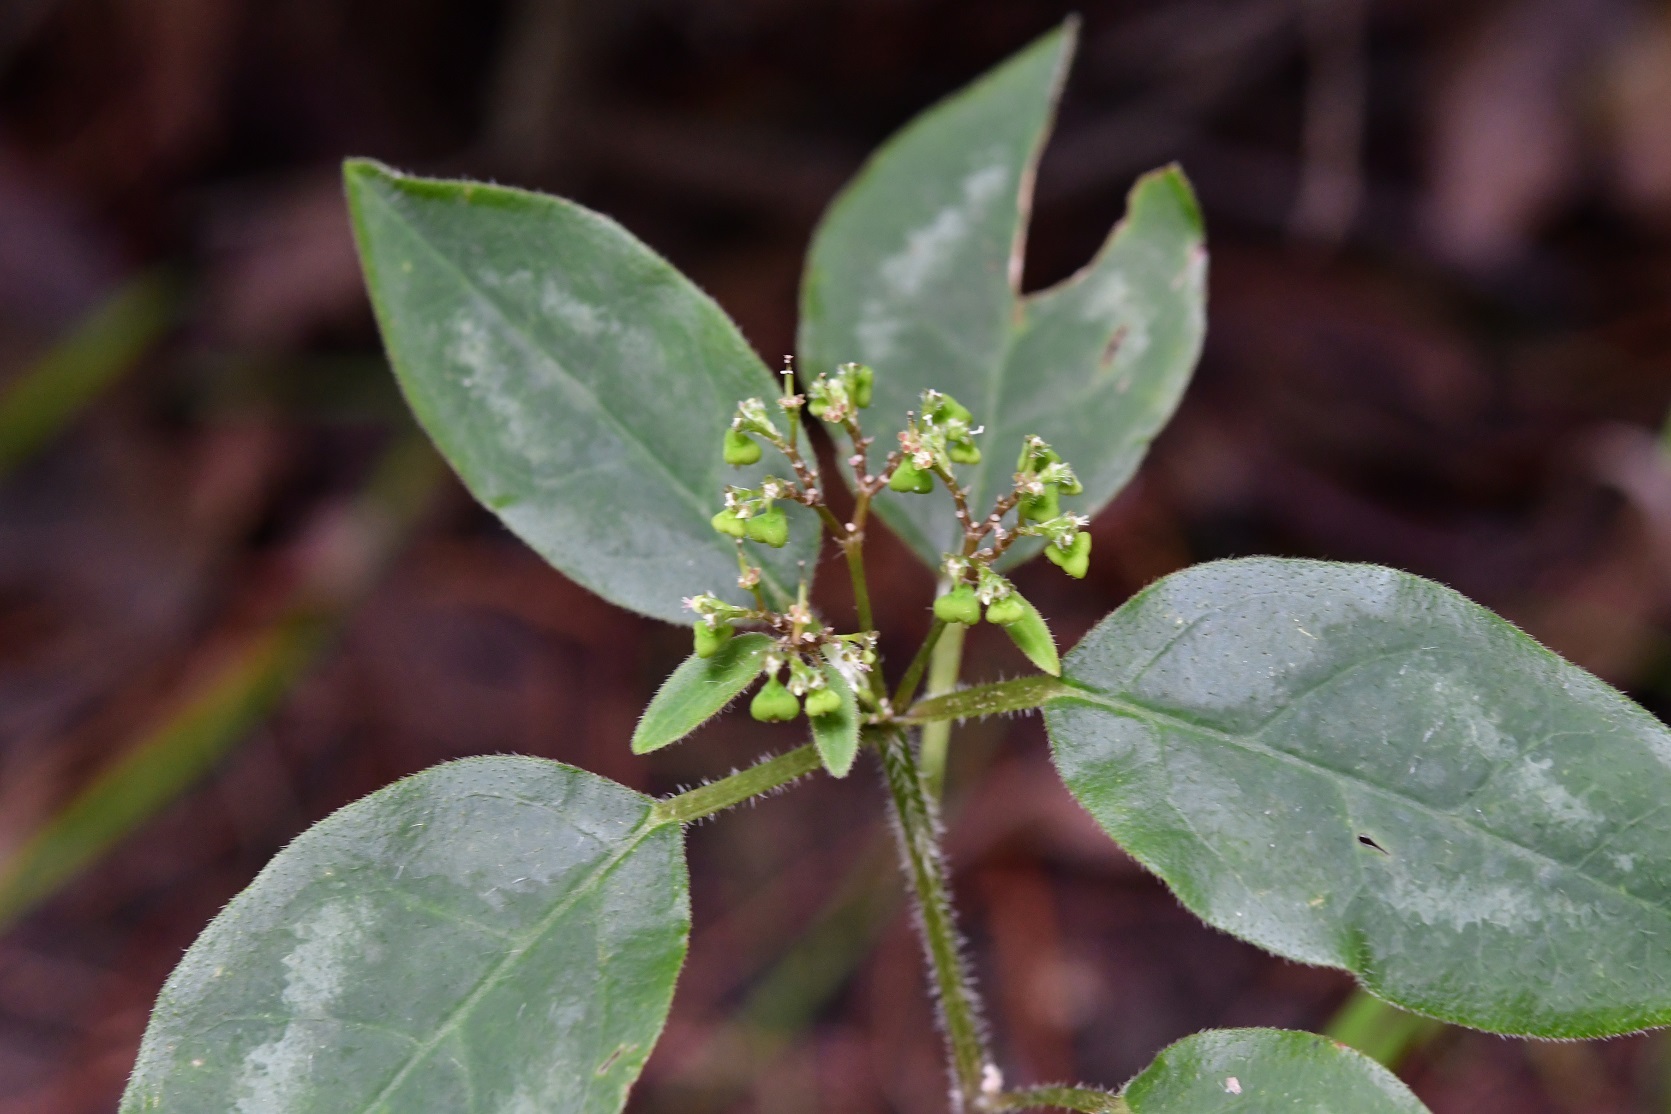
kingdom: Plantae
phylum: Tracheophyta
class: Magnoliopsida
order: Malpighiales
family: Euphorbiaceae
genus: Euphorbia
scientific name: Euphorbia graminea
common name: Grassleaf spurge
